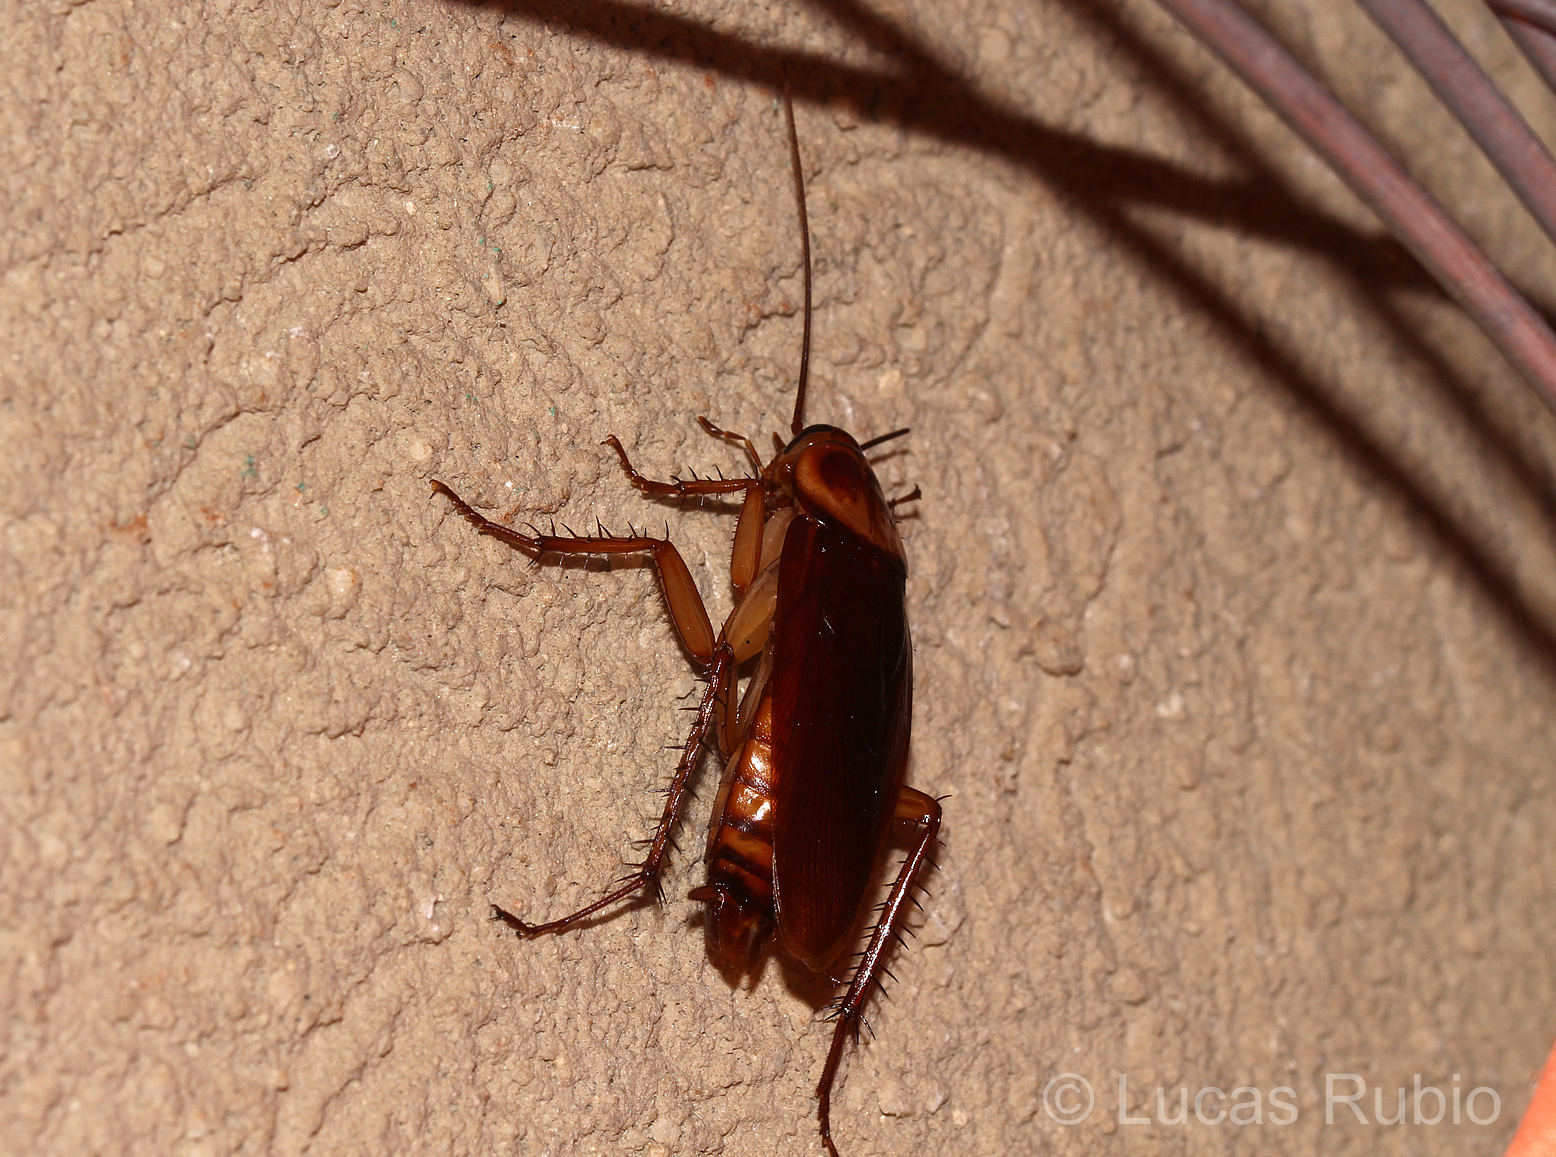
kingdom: Animalia
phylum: Arthropoda
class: Insecta
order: Blattodea
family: Blattidae
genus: Periplaneta
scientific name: Periplaneta americana
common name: American cockroach
